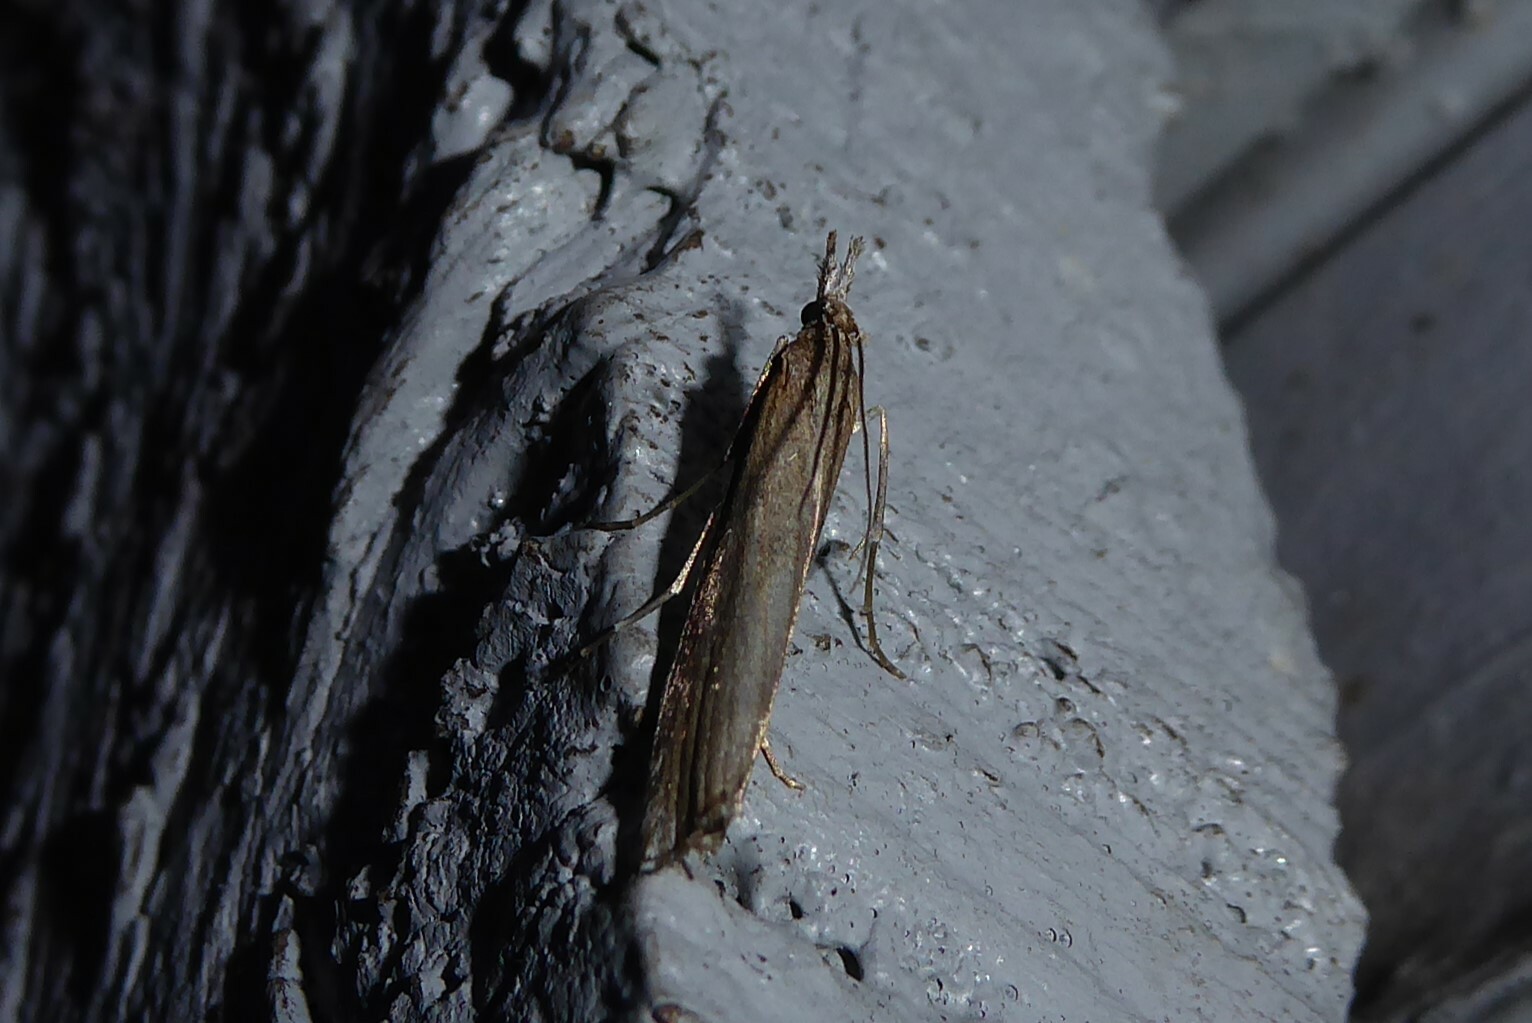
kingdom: Animalia
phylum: Arthropoda
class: Insecta
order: Lepidoptera
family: Crambidae
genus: Orocrambus
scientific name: Orocrambus cyclopicus
